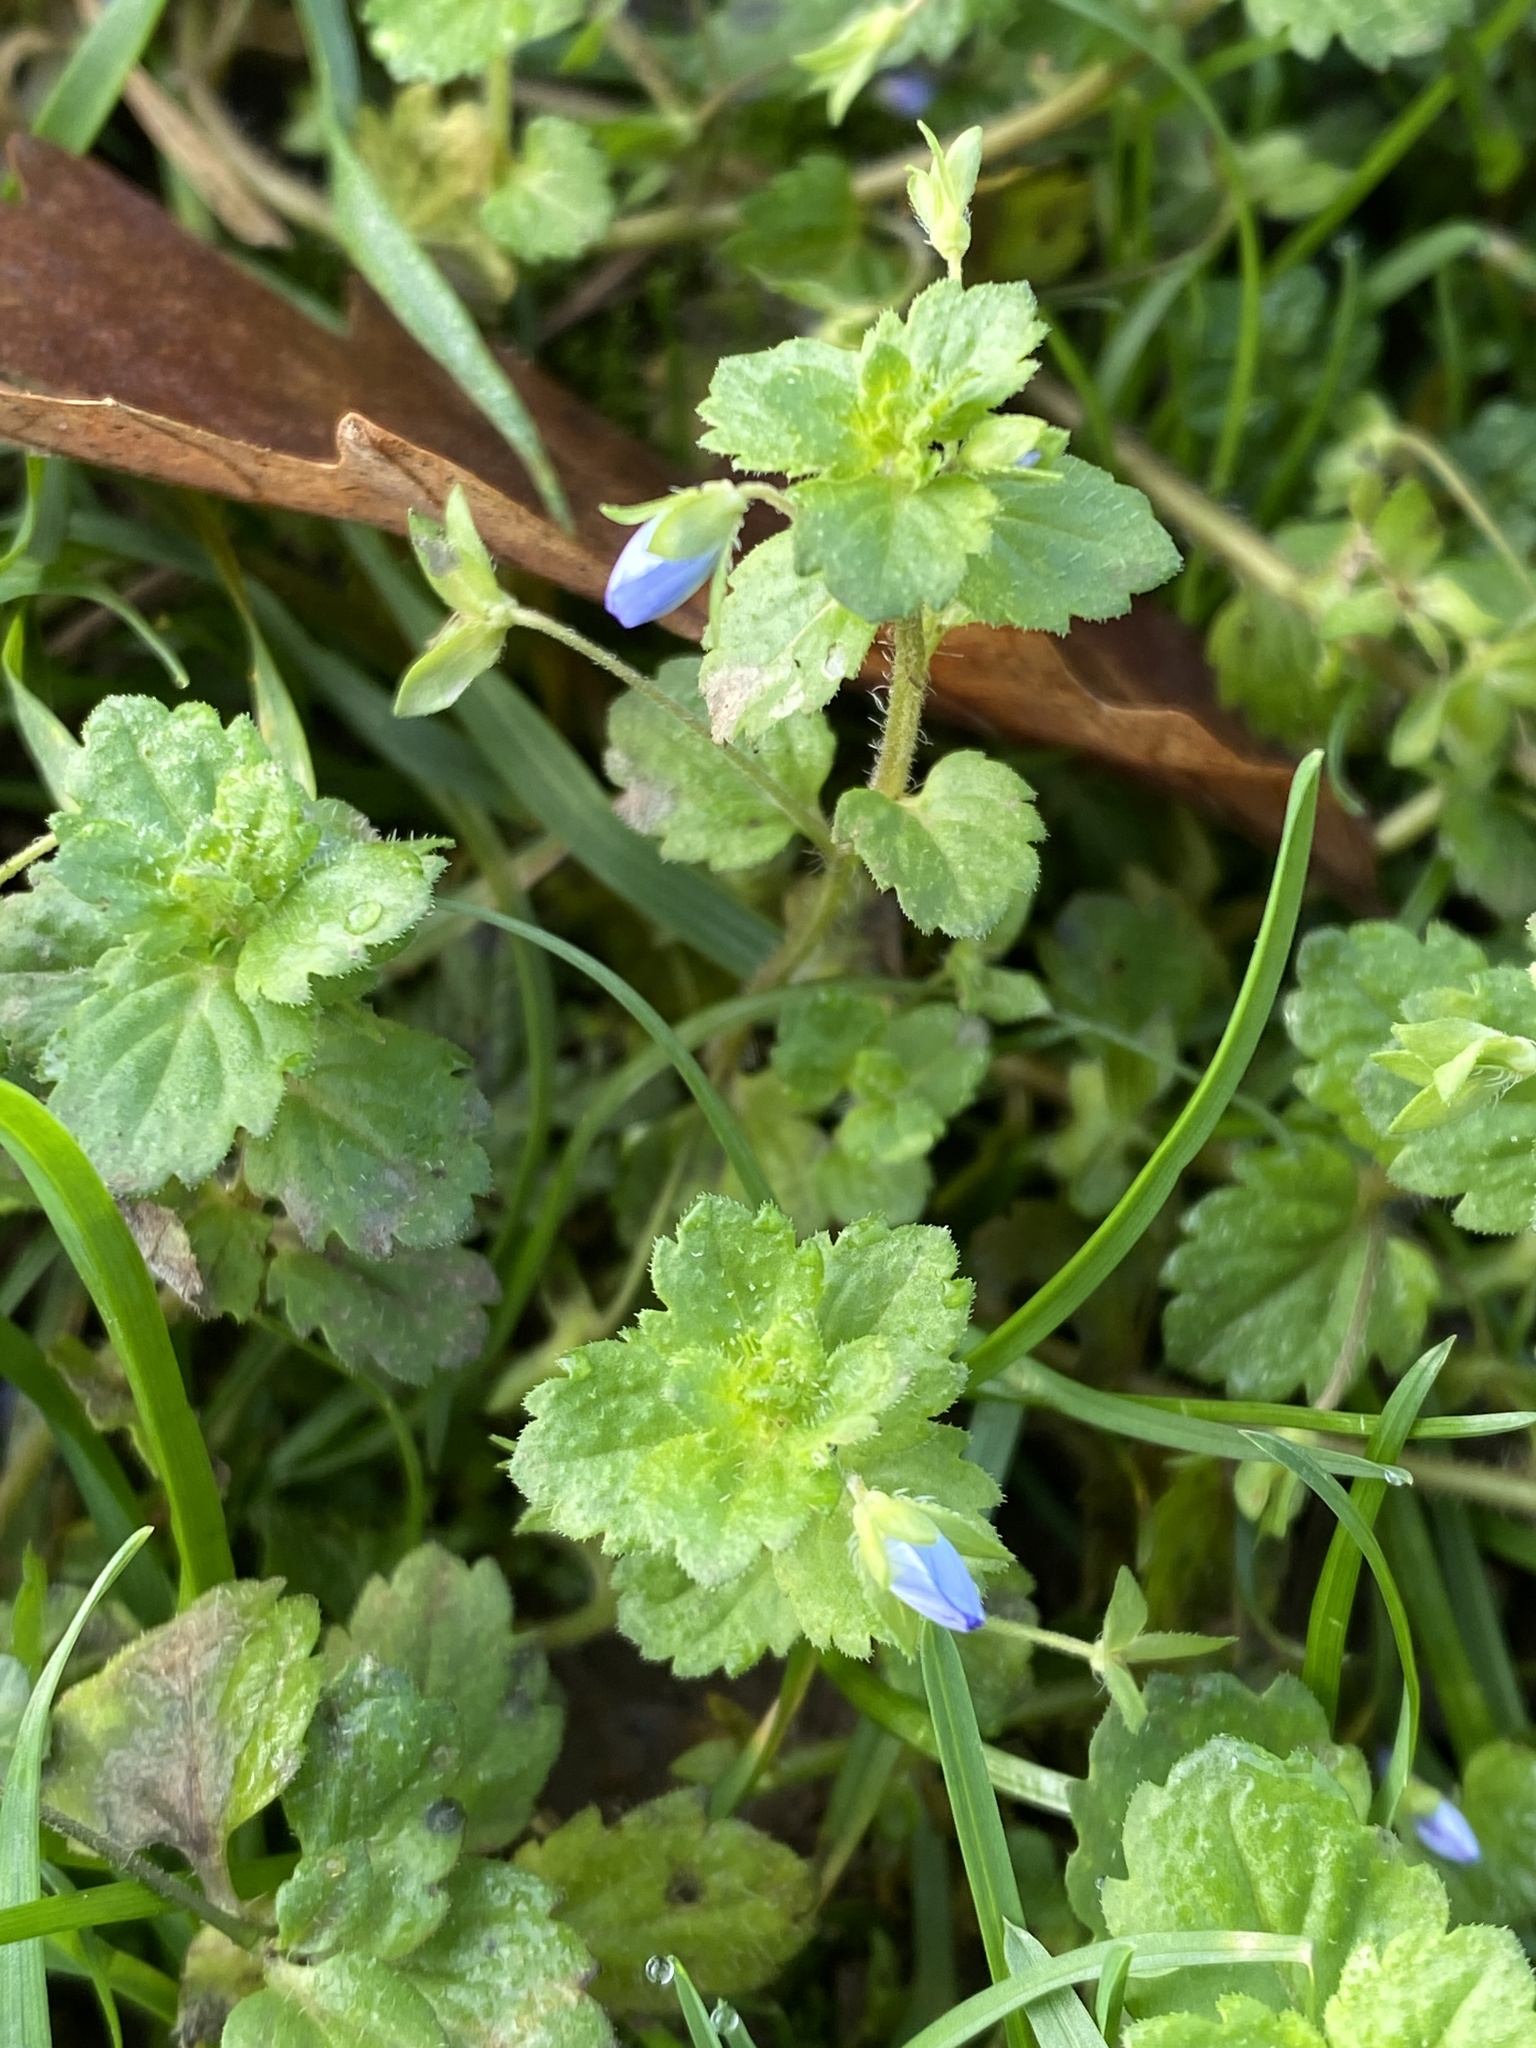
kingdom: Plantae
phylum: Tracheophyta
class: Magnoliopsida
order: Lamiales
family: Plantaginaceae
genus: Veronica
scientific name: Veronica persica
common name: Common field-speedwell
